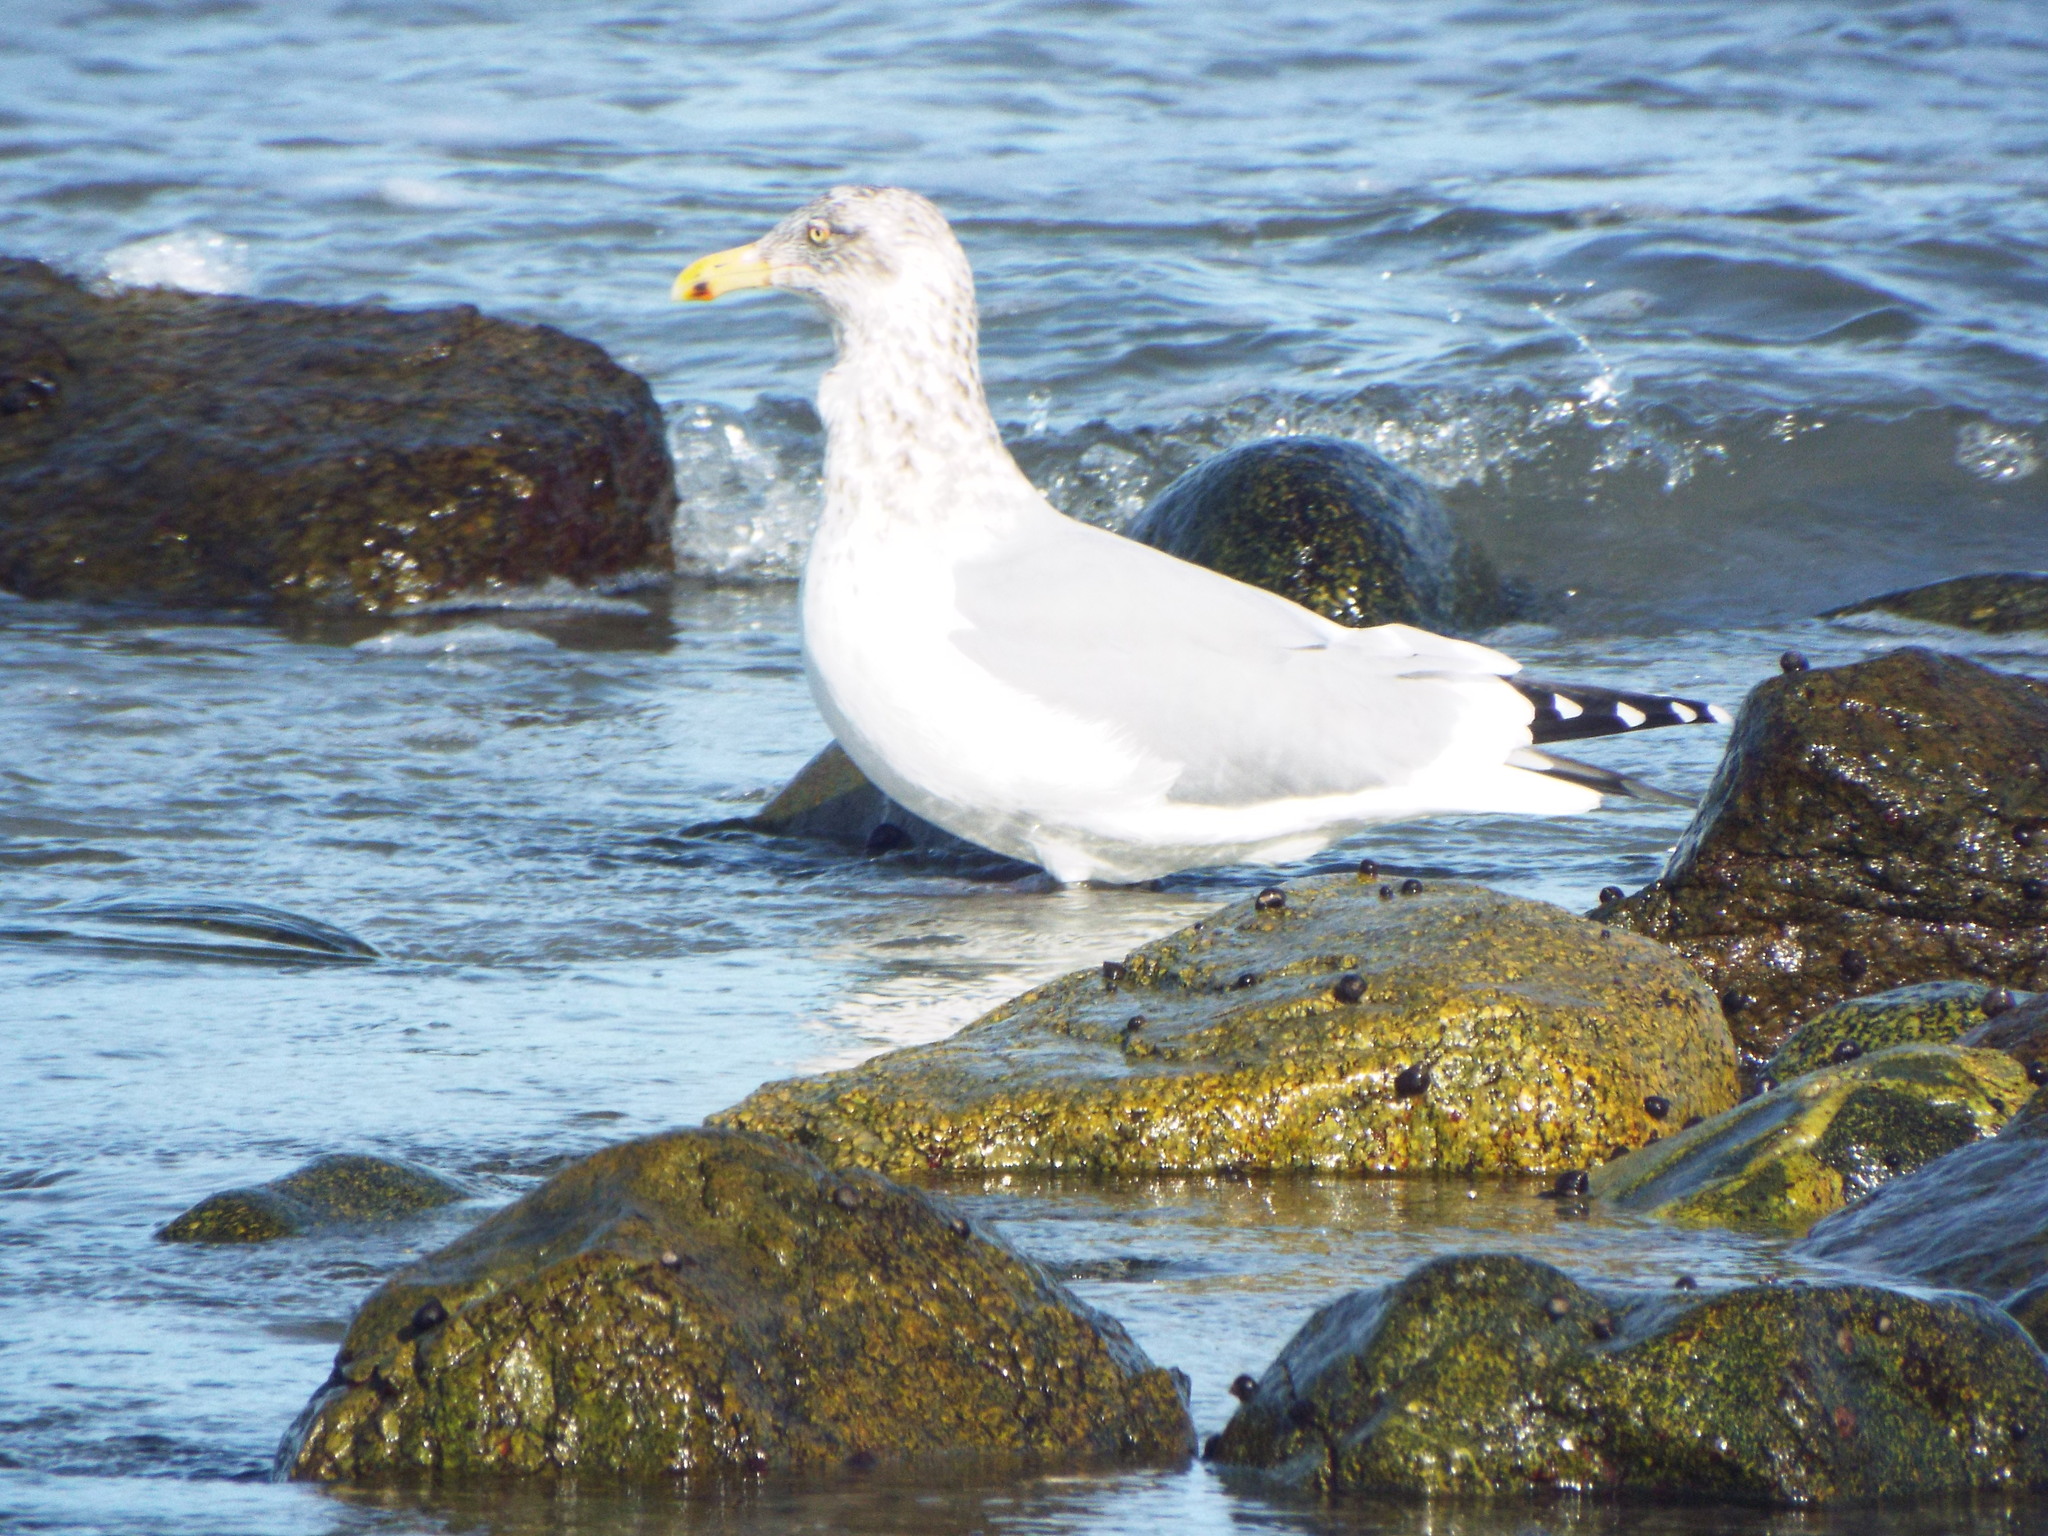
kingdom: Animalia
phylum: Chordata
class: Aves
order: Charadriiformes
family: Laridae
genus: Larus
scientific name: Larus argentatus
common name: Herring gull
